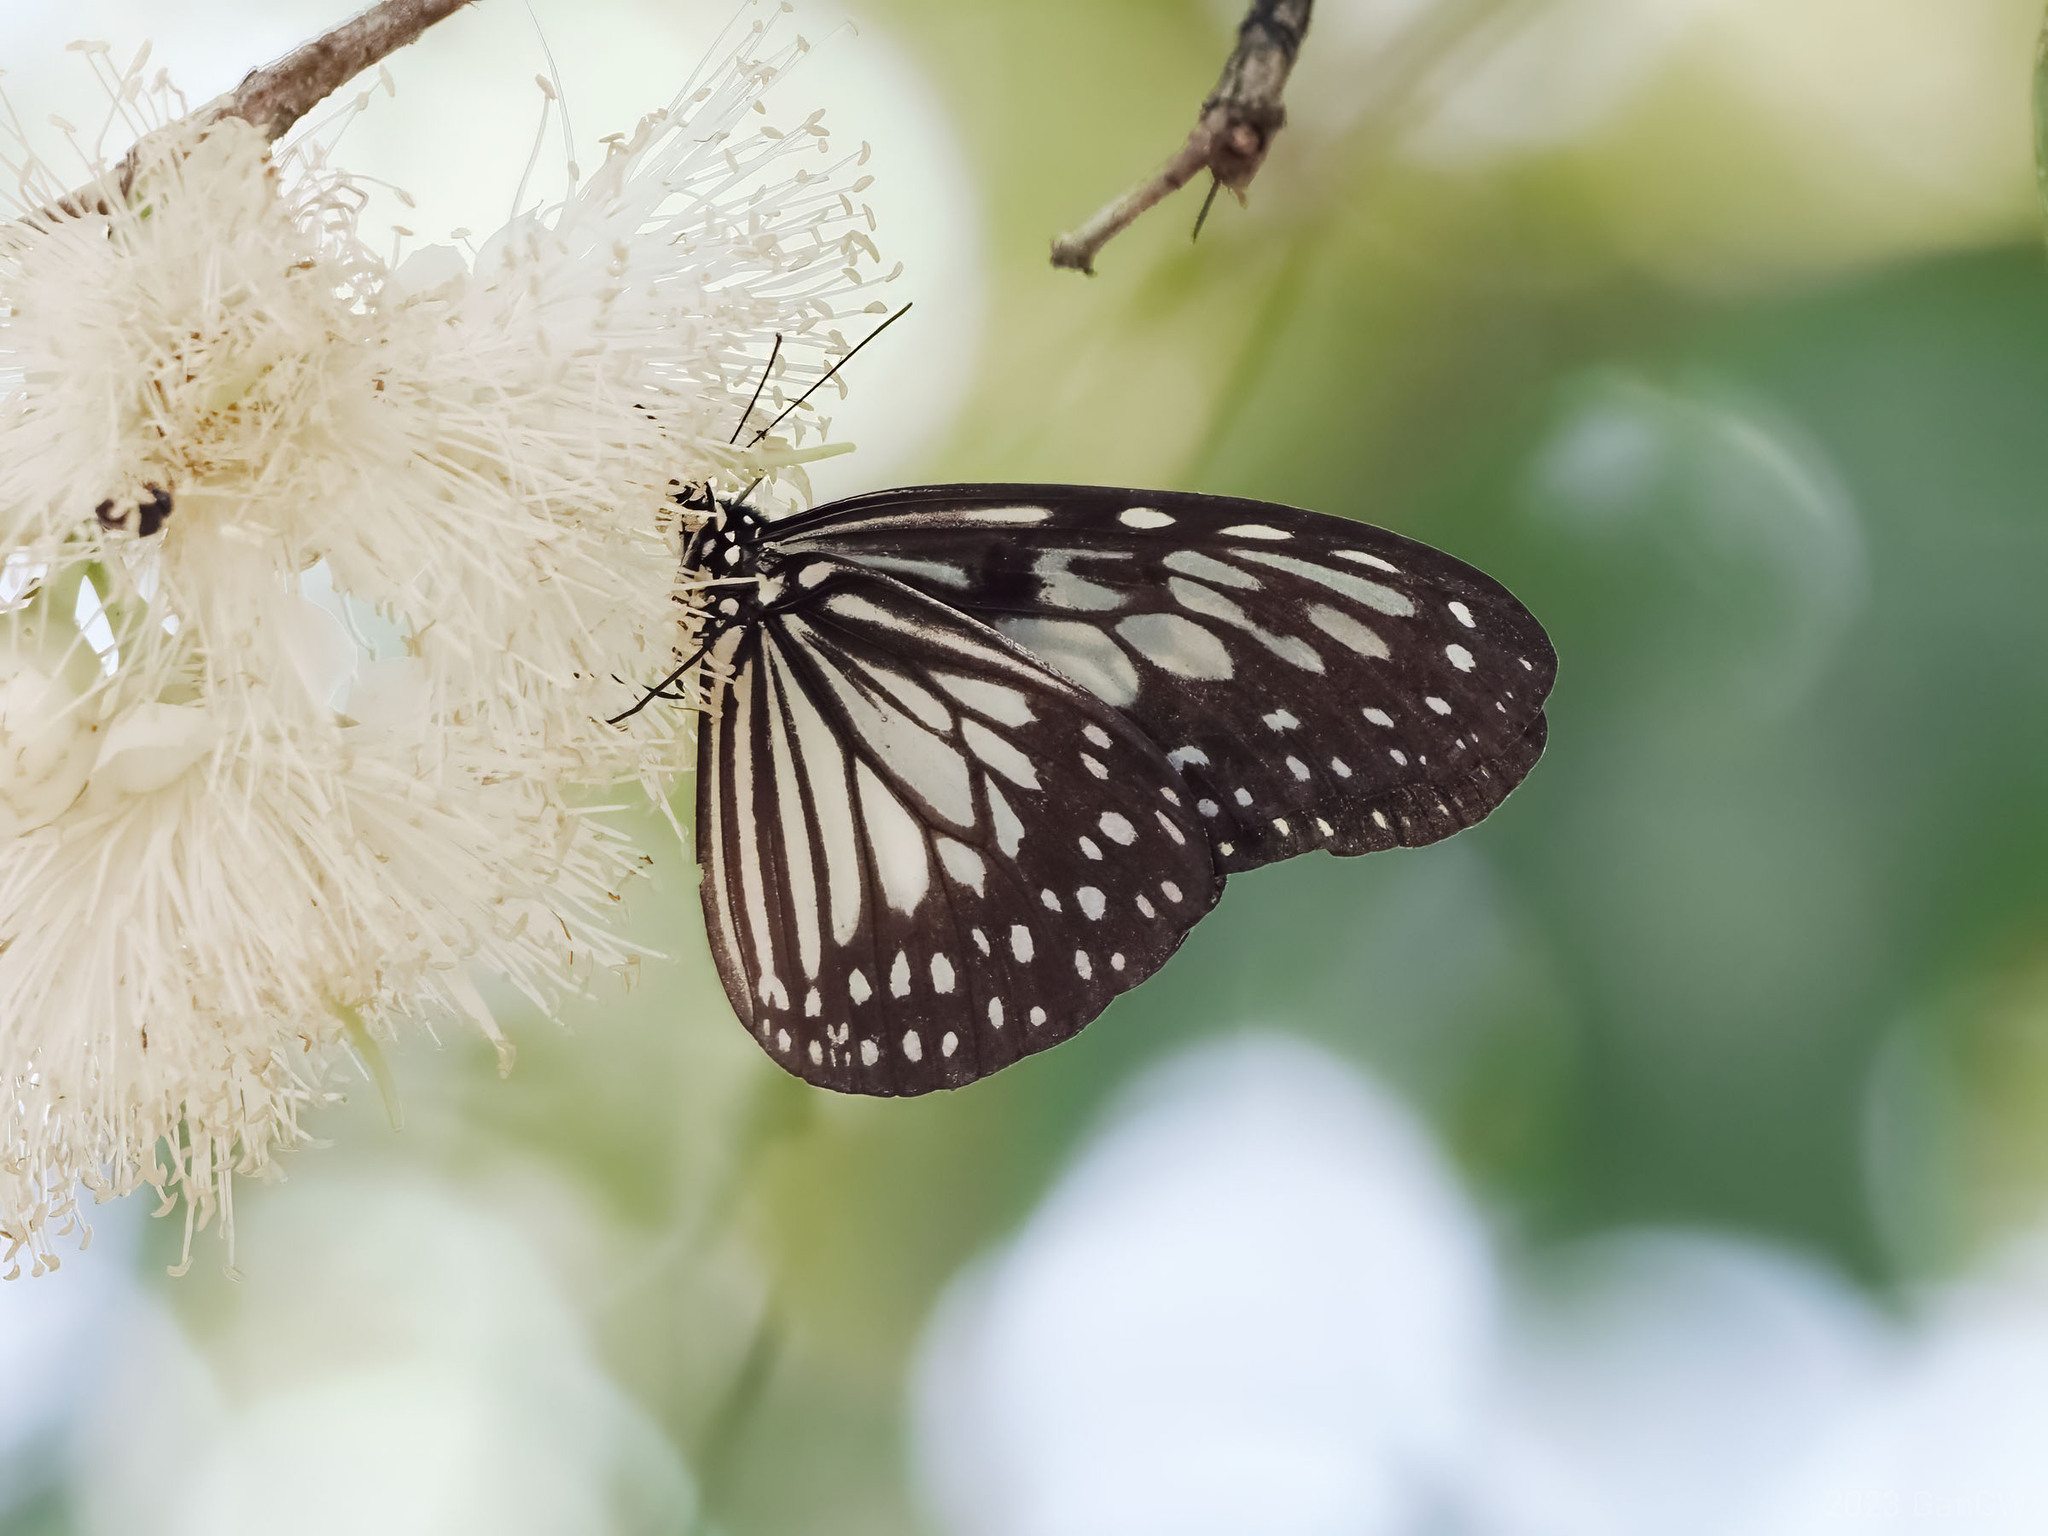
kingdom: Animalia
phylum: Arthropoda
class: Insecta
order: Lepidoptera
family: Nymphalidae
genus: Ideopsis
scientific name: Ideopsis juventa
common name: Grey glassy tiger
